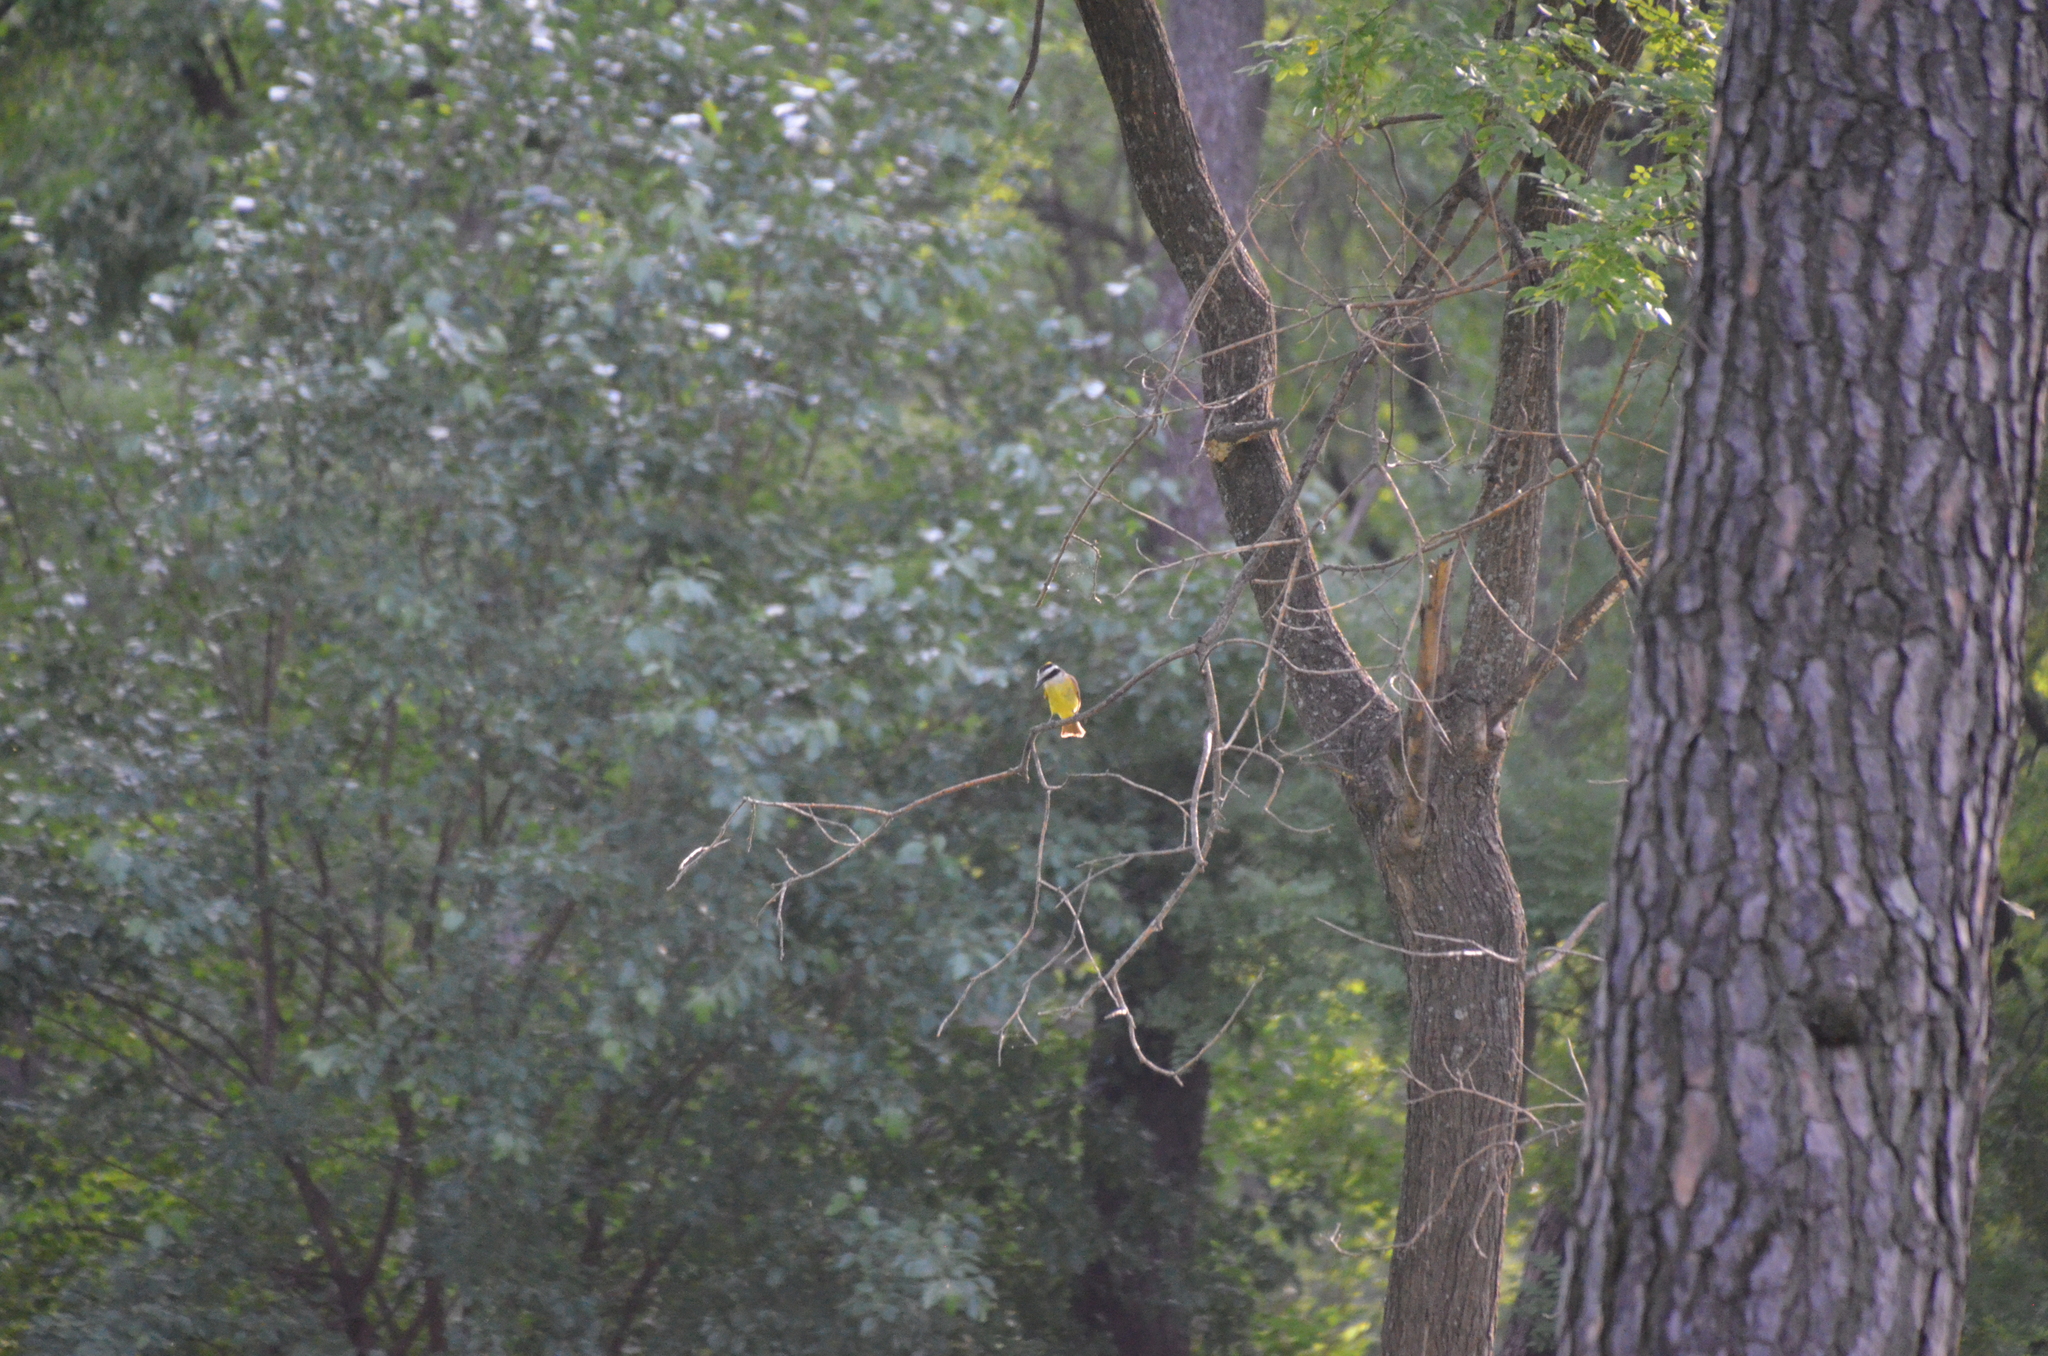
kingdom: Animalia
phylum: Chordata
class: Aves
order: Passeriformes
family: Tyrannidae
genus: Pitangus
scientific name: Pitangus sulphuratus
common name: Great kiskadee
